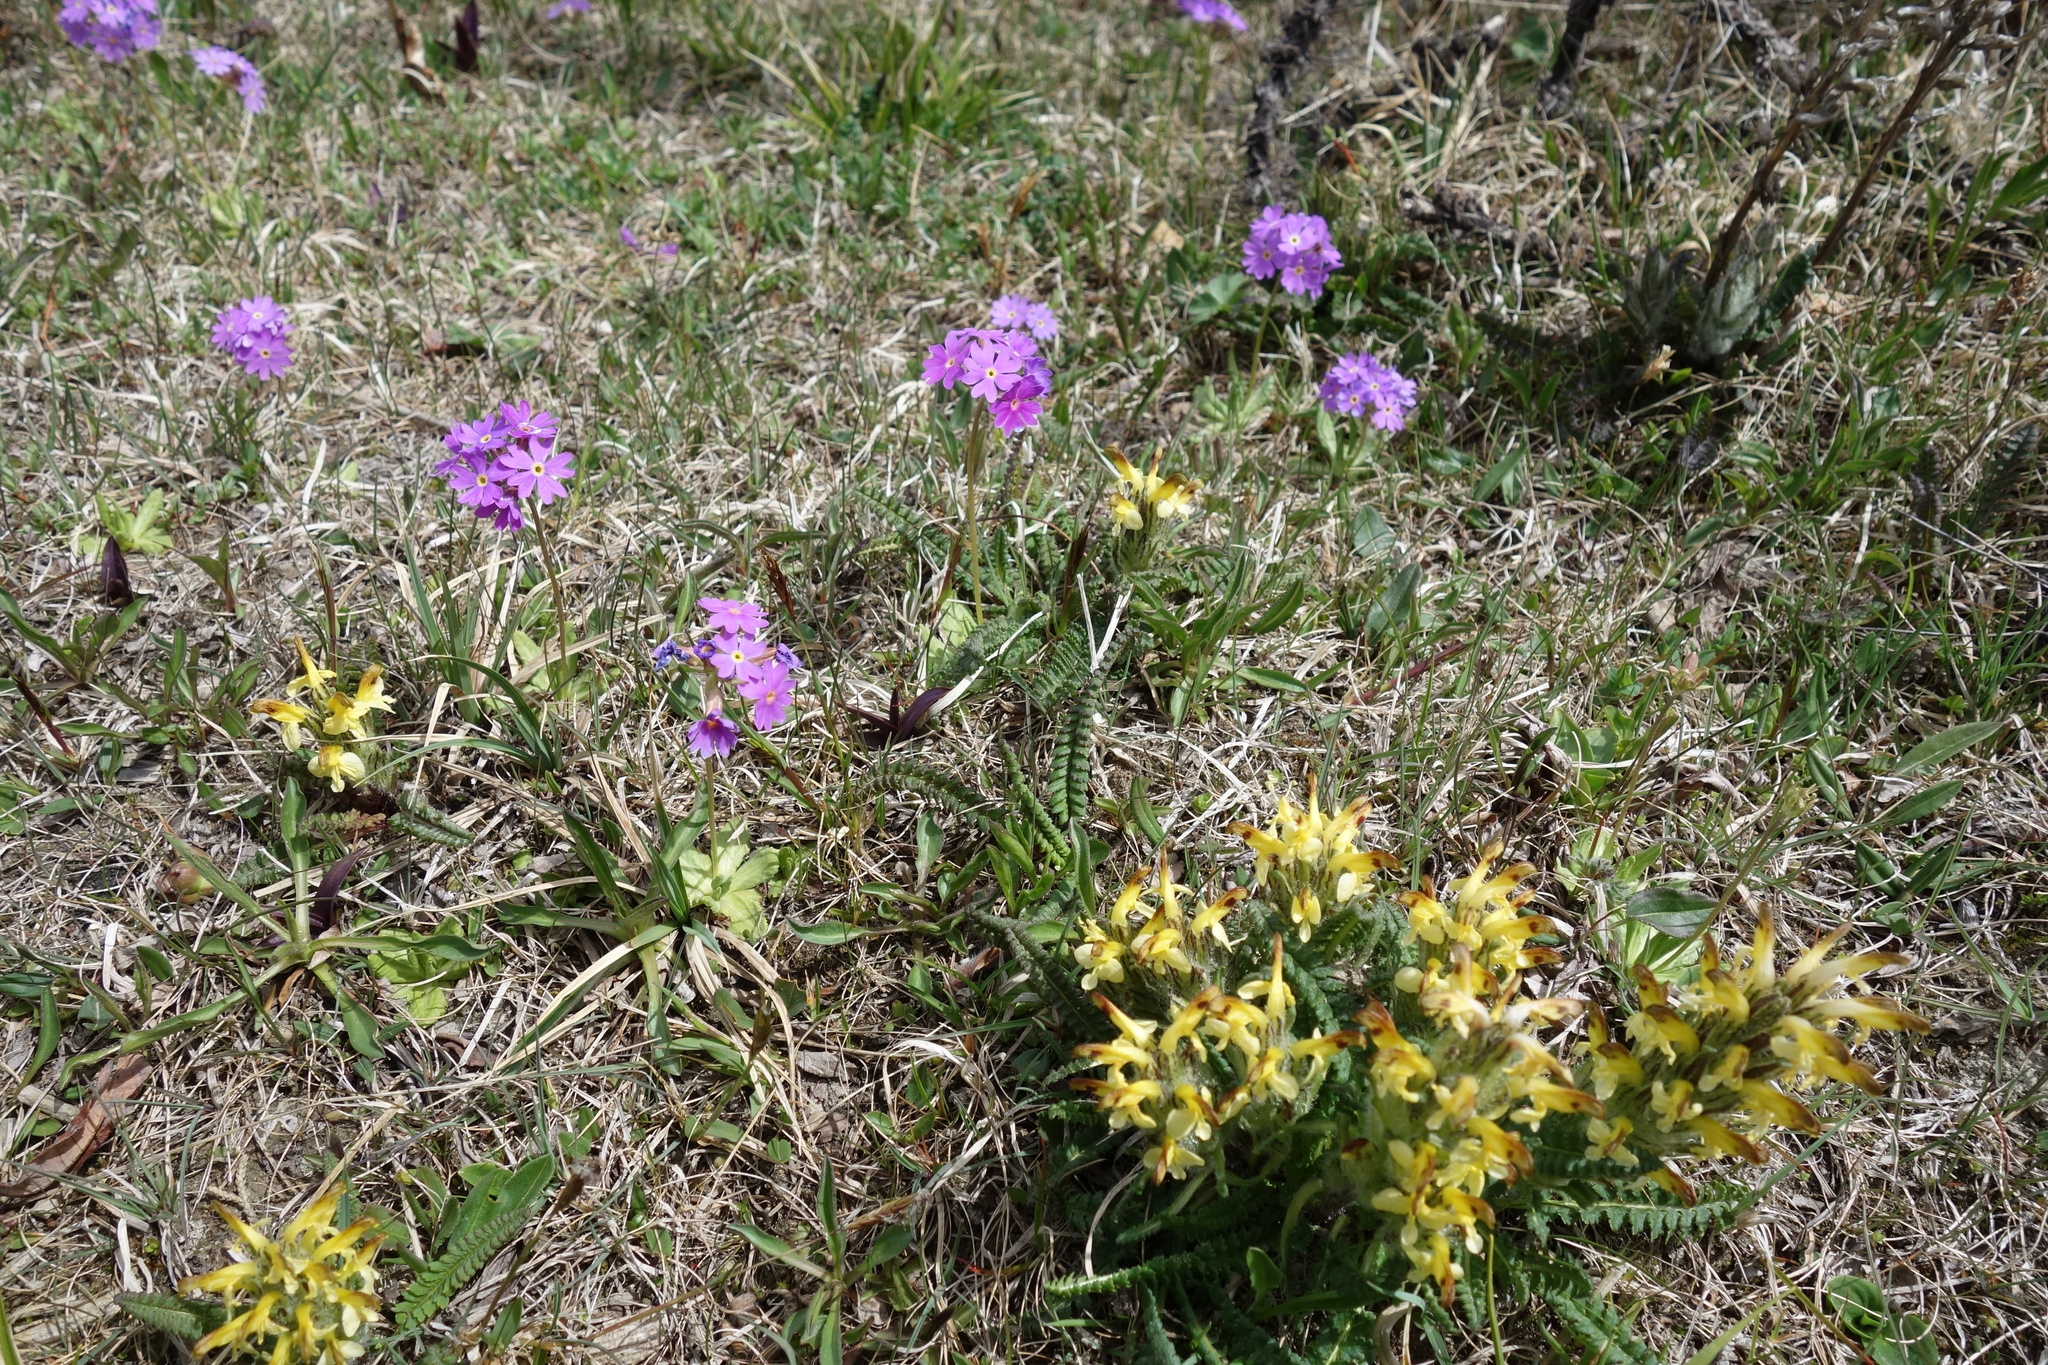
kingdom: Plantae
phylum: Tracheophyta
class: Magnoliopsida
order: Lamiales
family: Orobanchaceae
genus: Pedicularis
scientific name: Pedicularis oederi
